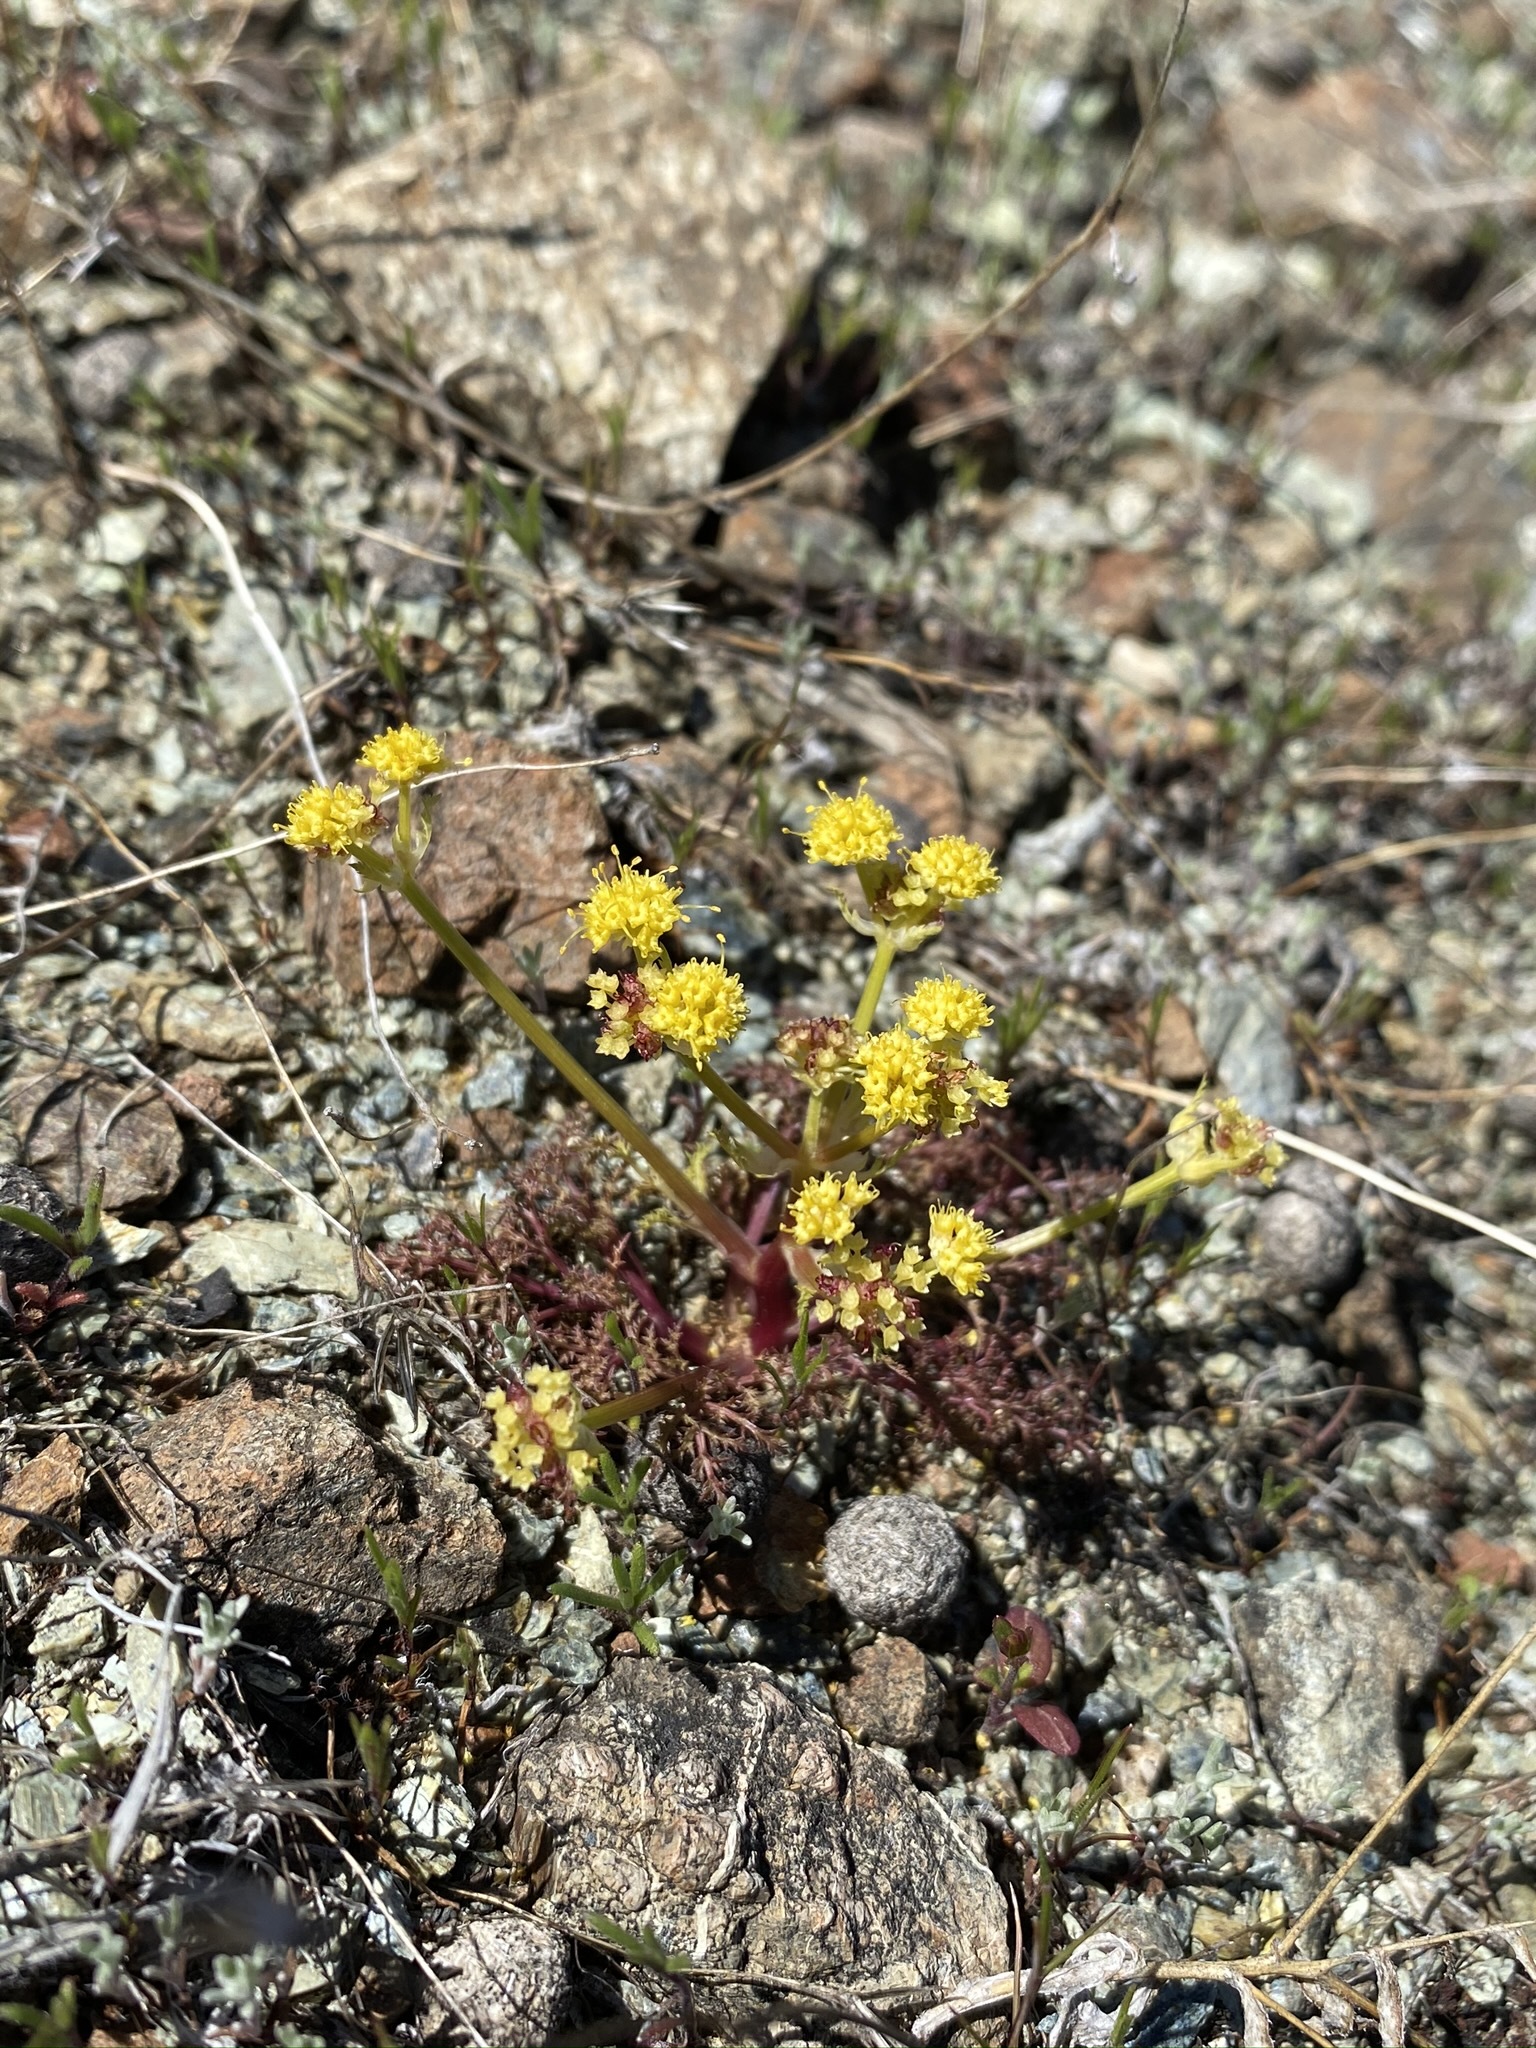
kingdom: Plantae
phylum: Tracheophyta
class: Magnoliopsida
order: Apiales
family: Apiaceae
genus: Sanicula
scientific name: Sanicula tuberosa
